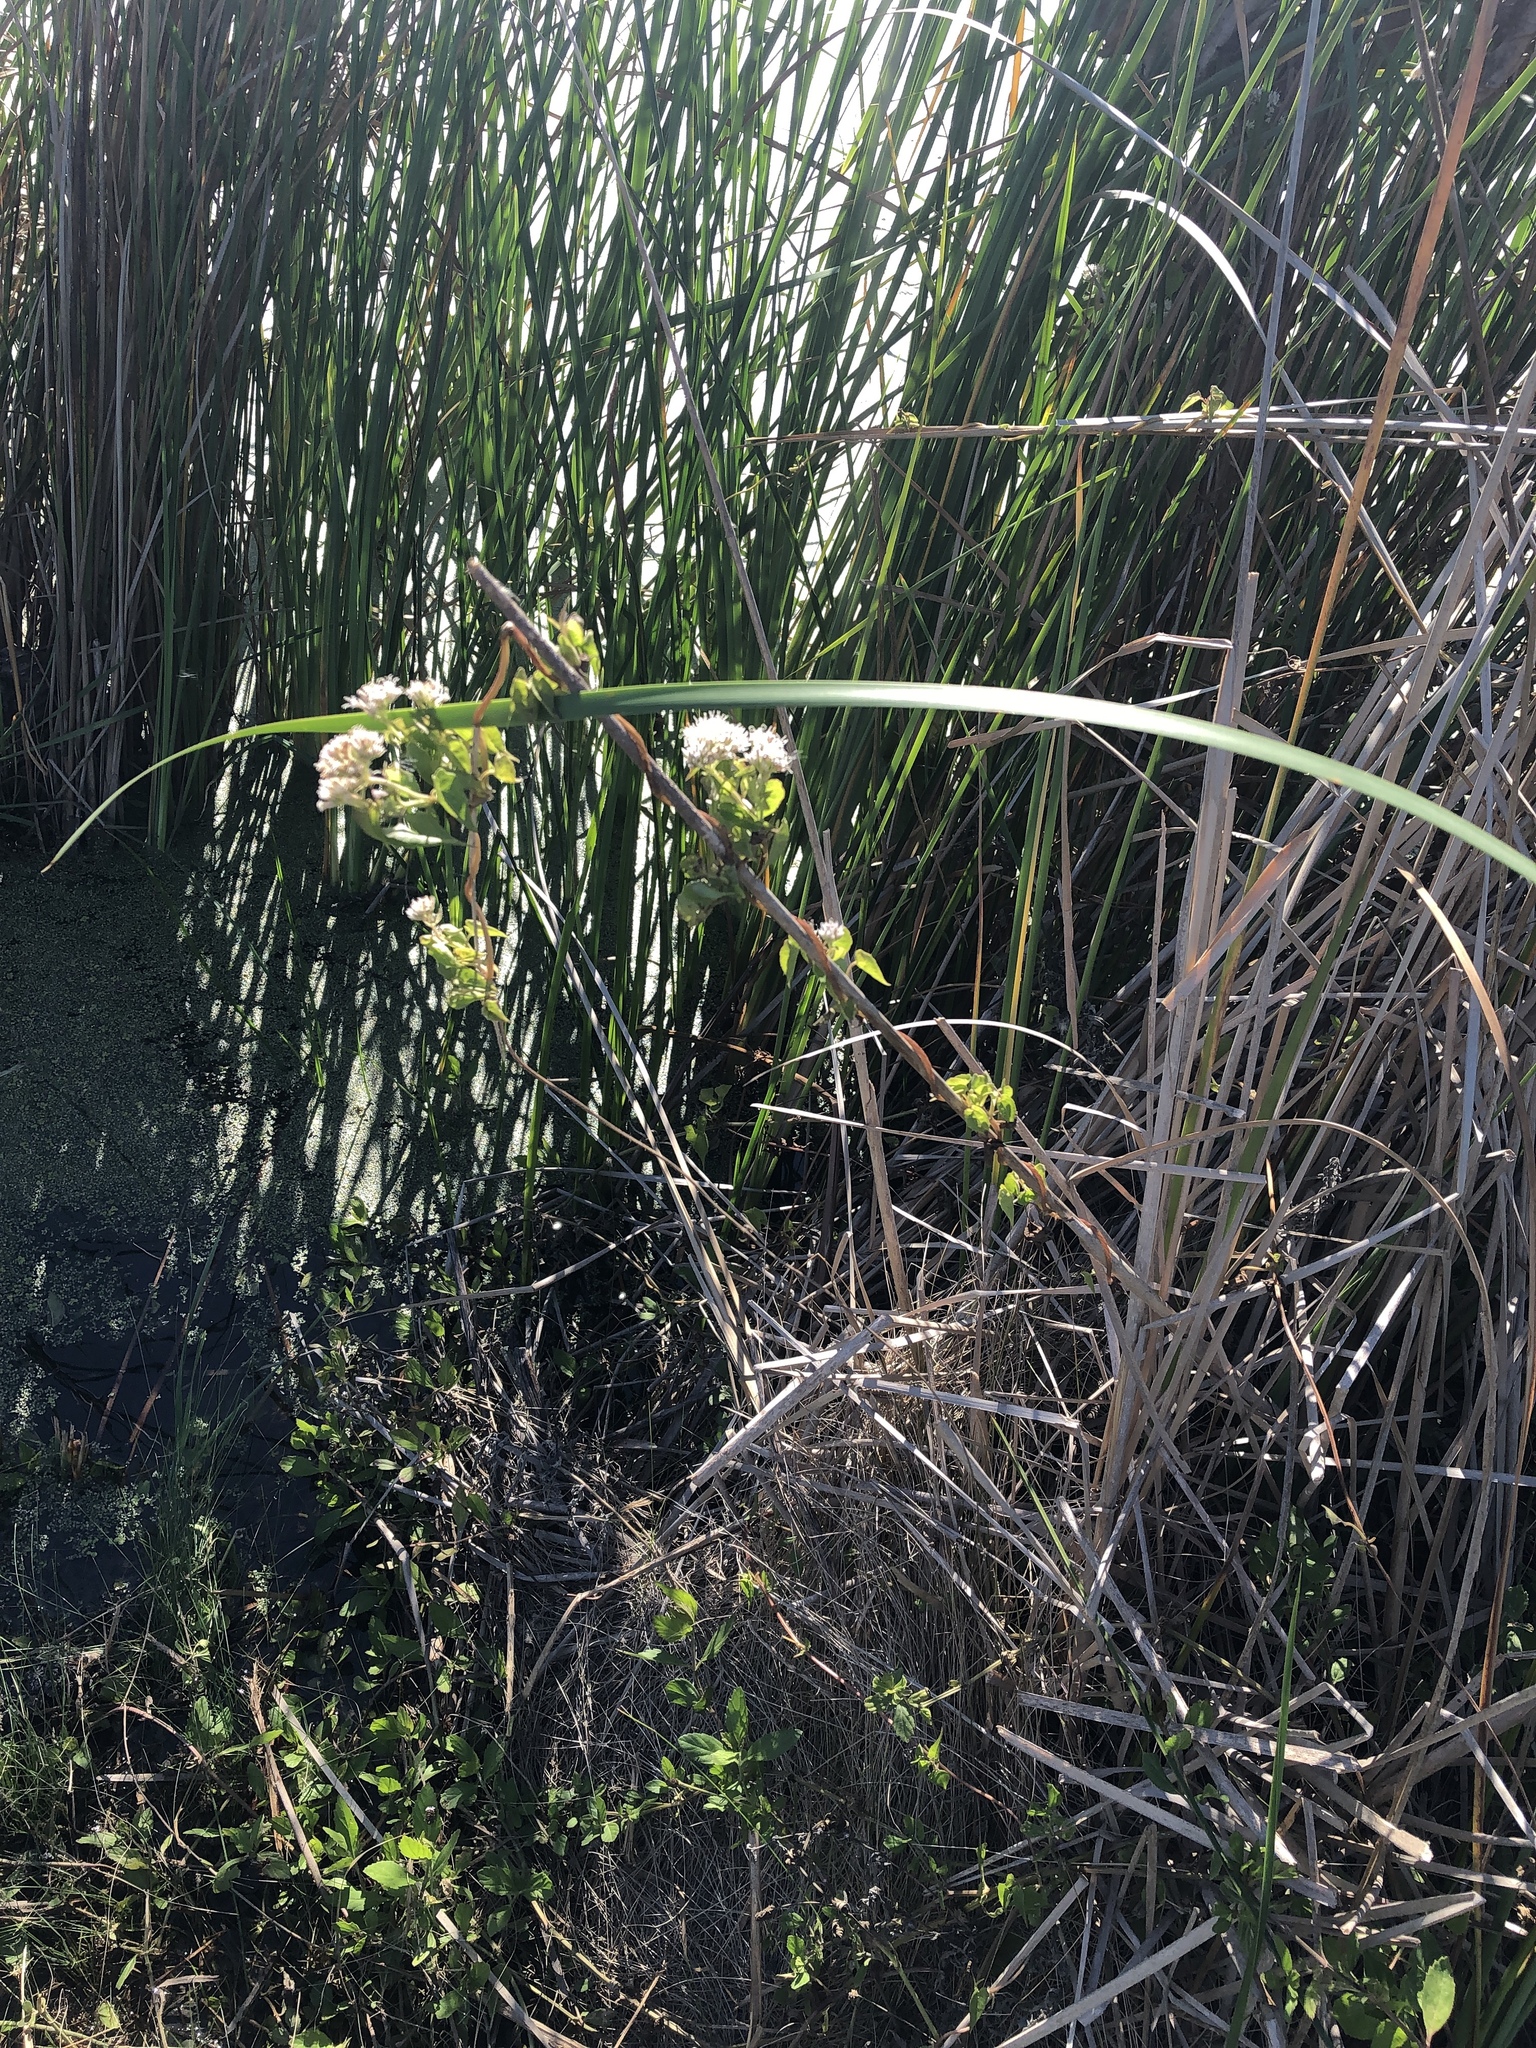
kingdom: Plantae
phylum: Tracheophyta
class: Magnoliopsida
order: Asterales
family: Asteraceae
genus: Mikania
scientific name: Mikania scandens
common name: Climbing hempvine
